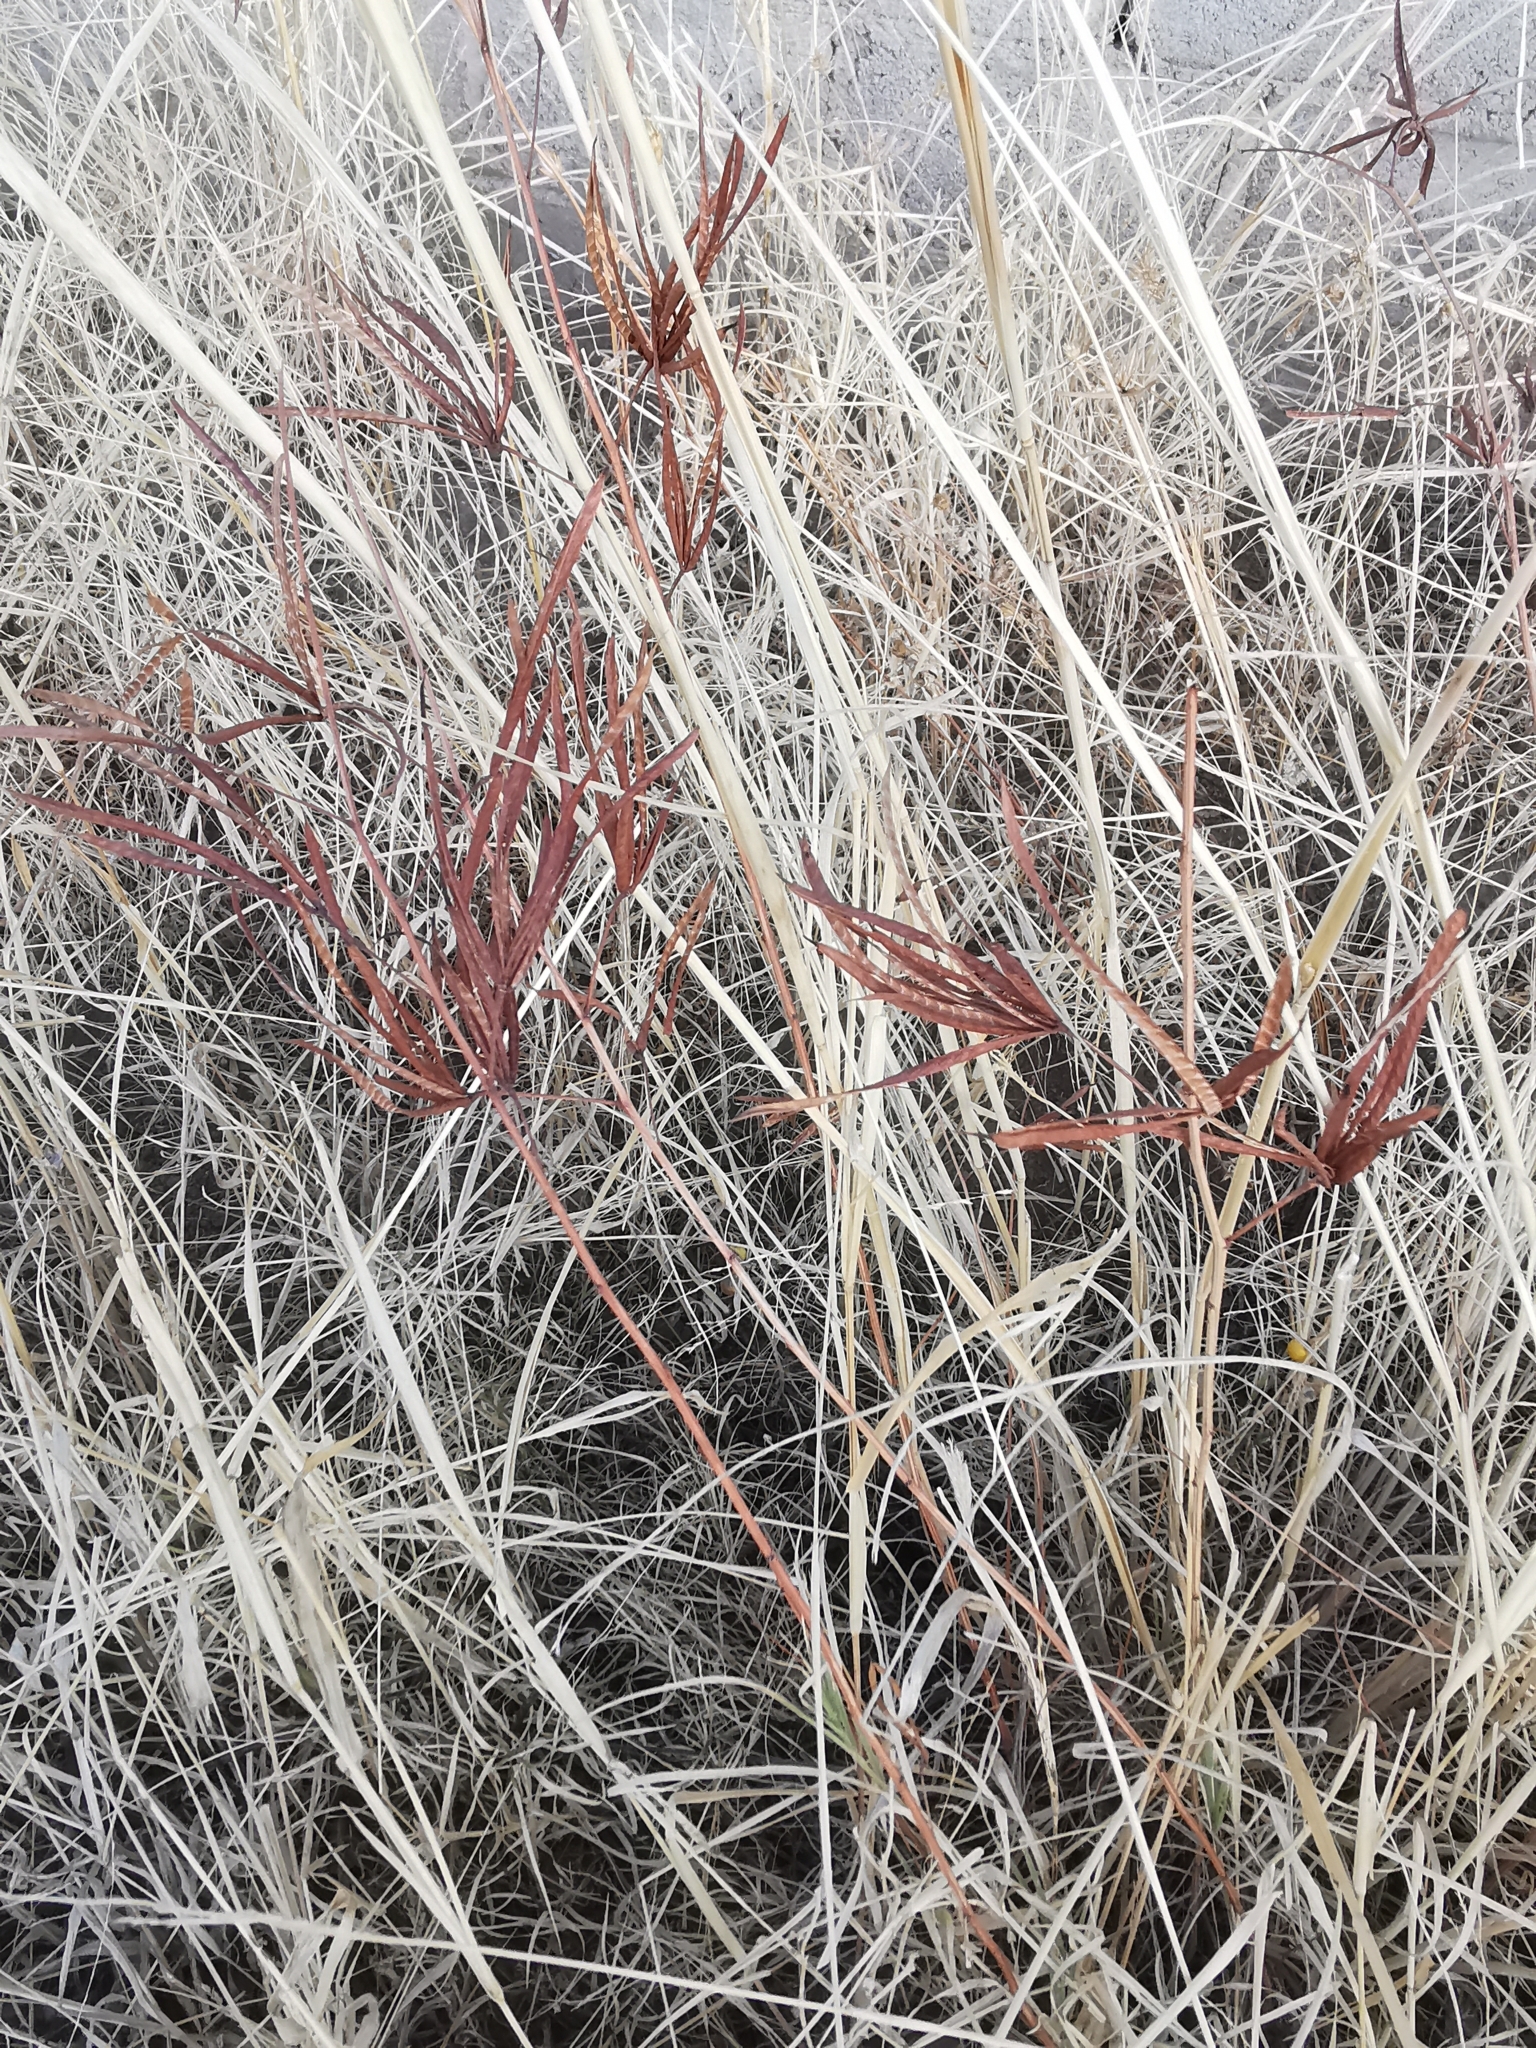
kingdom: Plantae
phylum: Tracheophyta
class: Magnoliopsida
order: Gentianales
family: Apocynaceae
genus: Mandevilla
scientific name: Mandevilla foliosa
